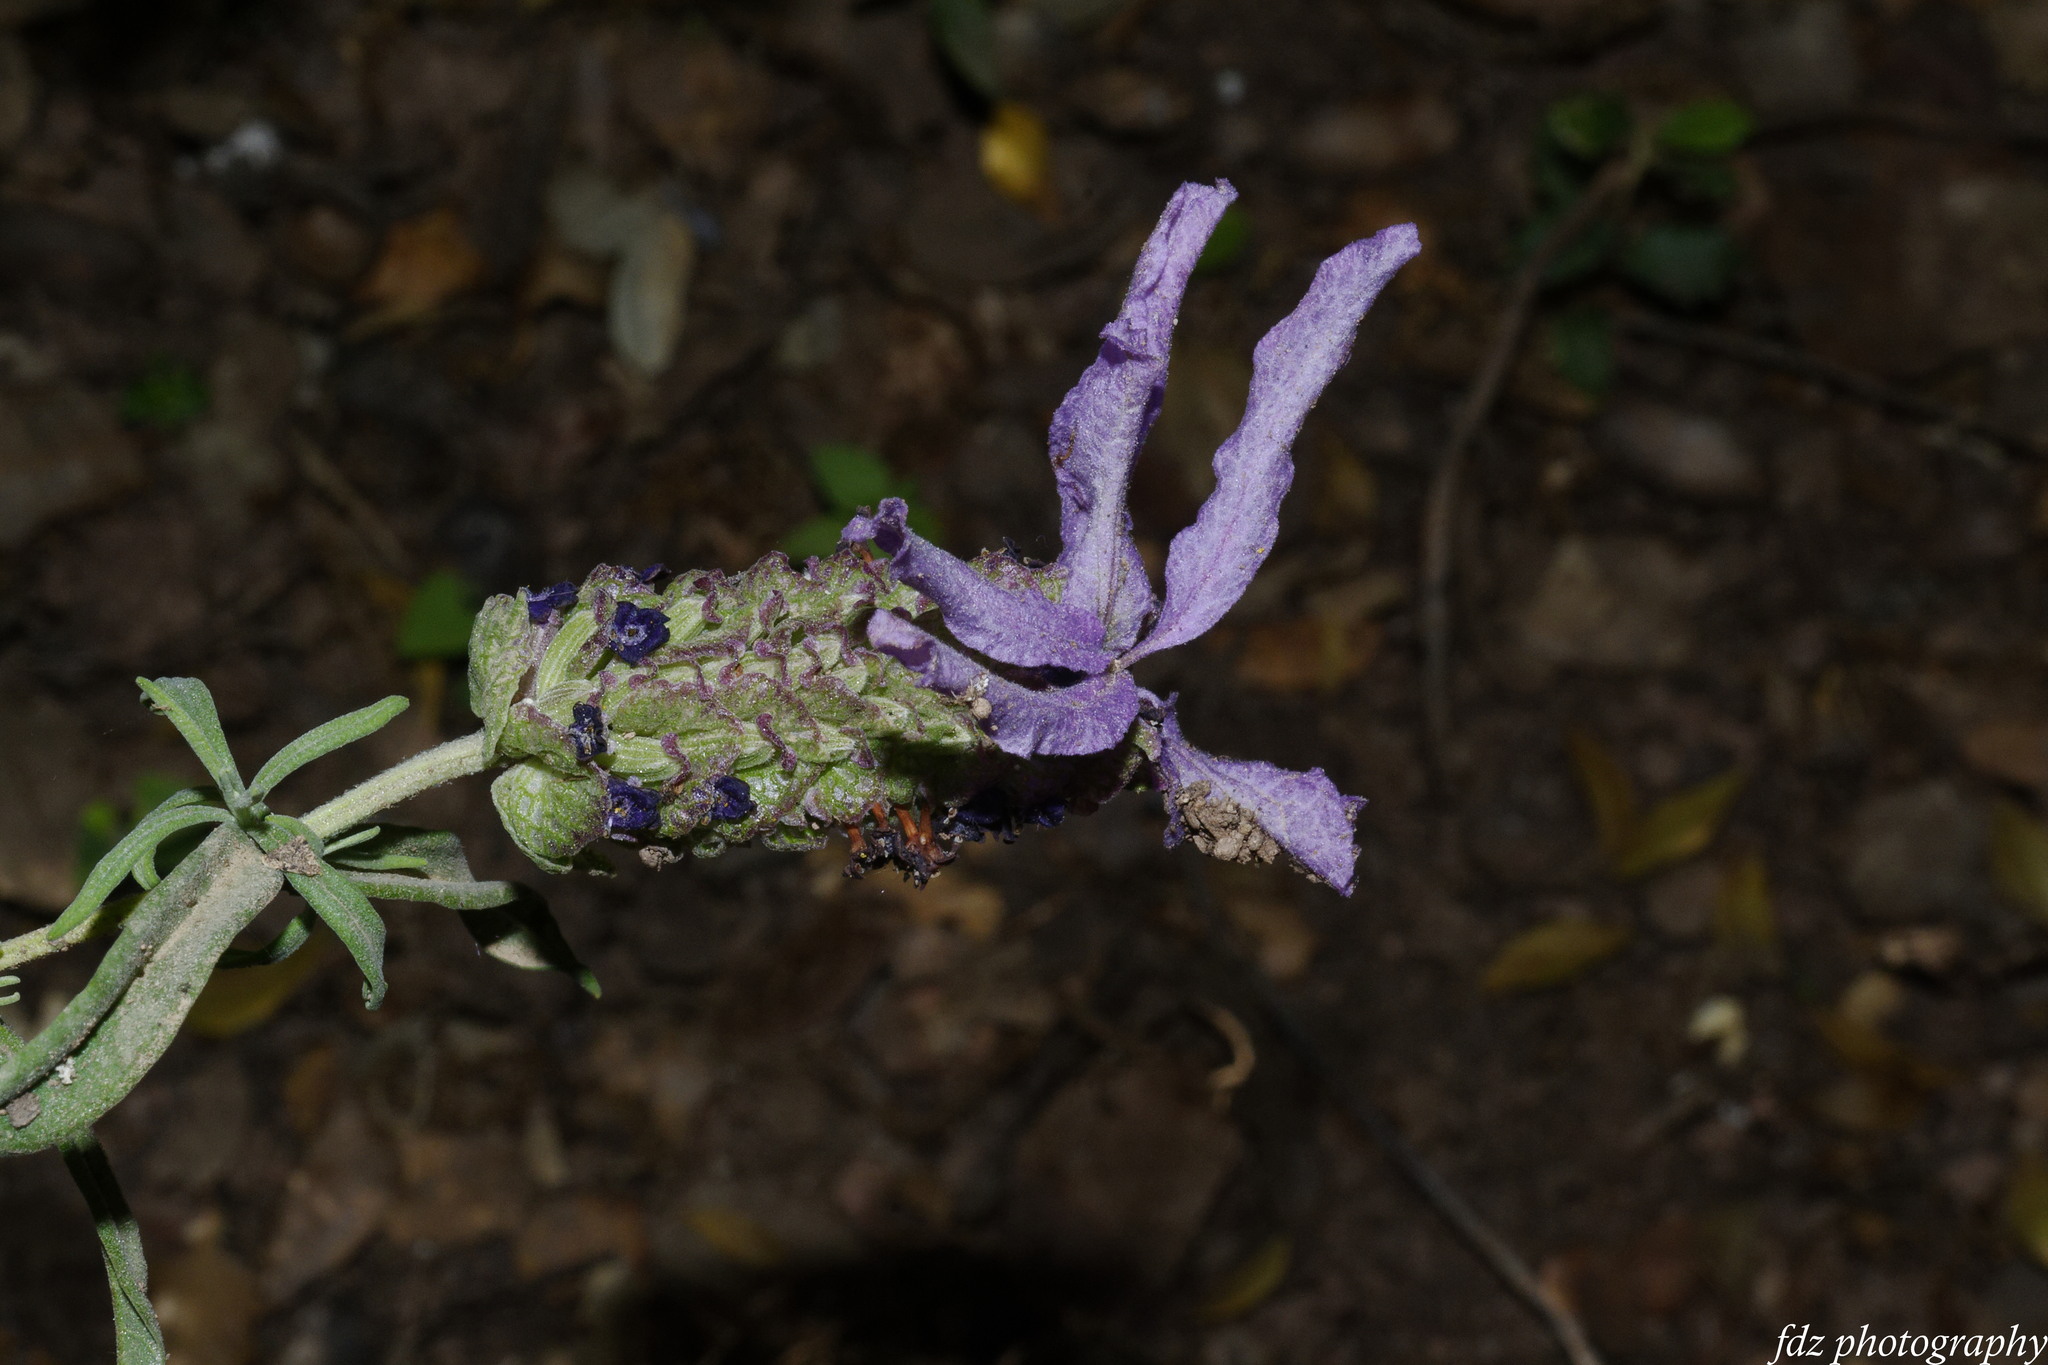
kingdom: Plantae
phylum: Tracheophyta
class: Magnoliopsida
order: Lamiales
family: Lamiaceae
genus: Lavandula
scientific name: Lavandula stoechas
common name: French lavender
